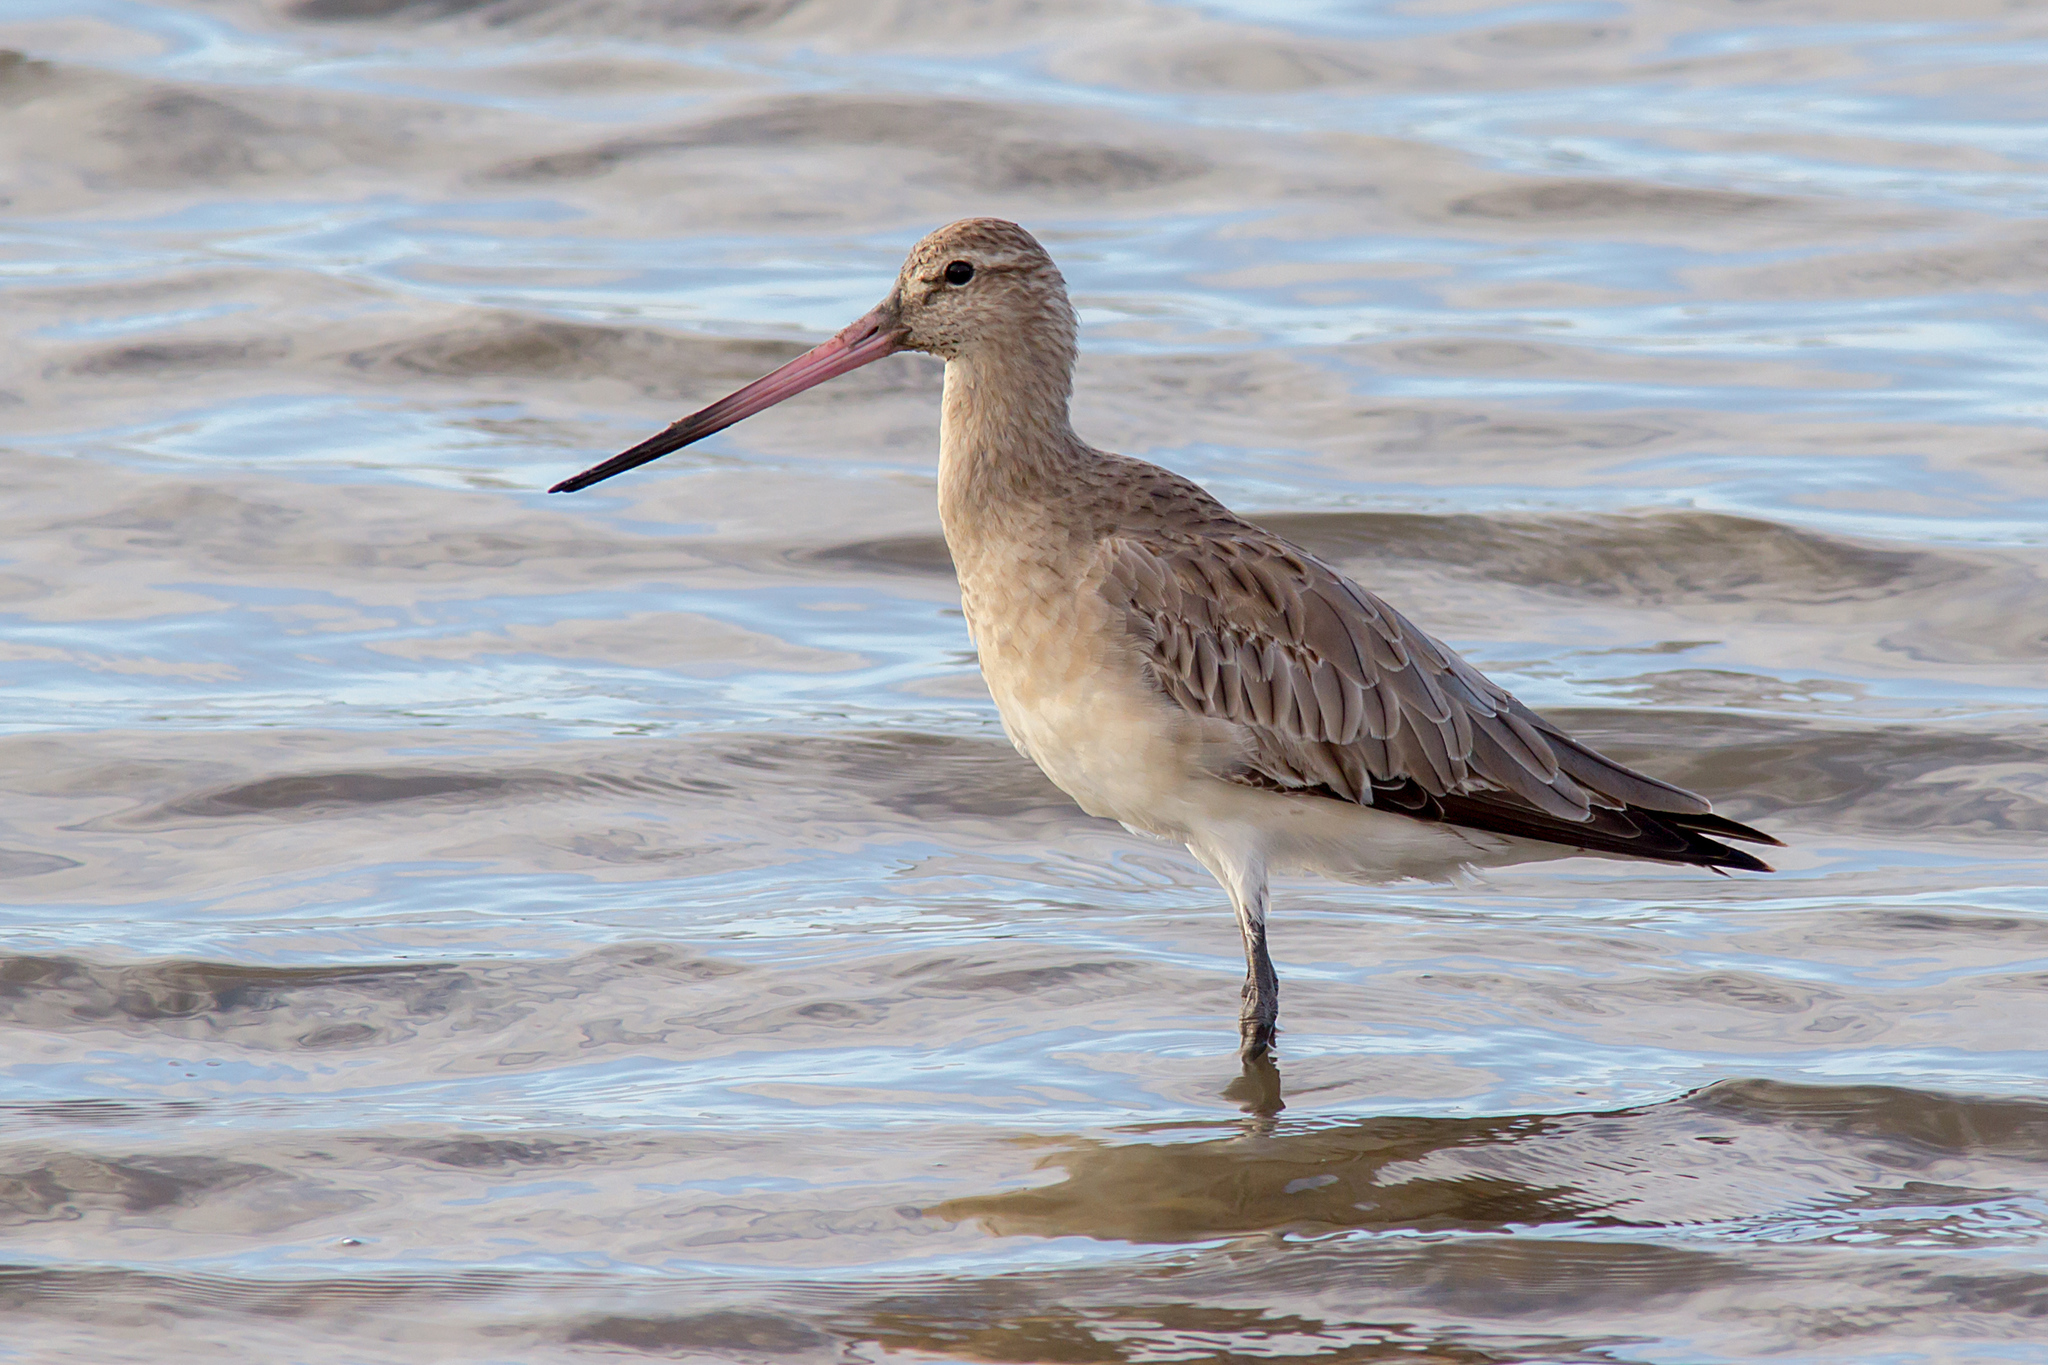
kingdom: Animalia
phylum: Chordata
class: Aves
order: Charadriiformes
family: Scolopacidae
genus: Limosa
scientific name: Limosa lapponica
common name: Bar-tailed godwit
